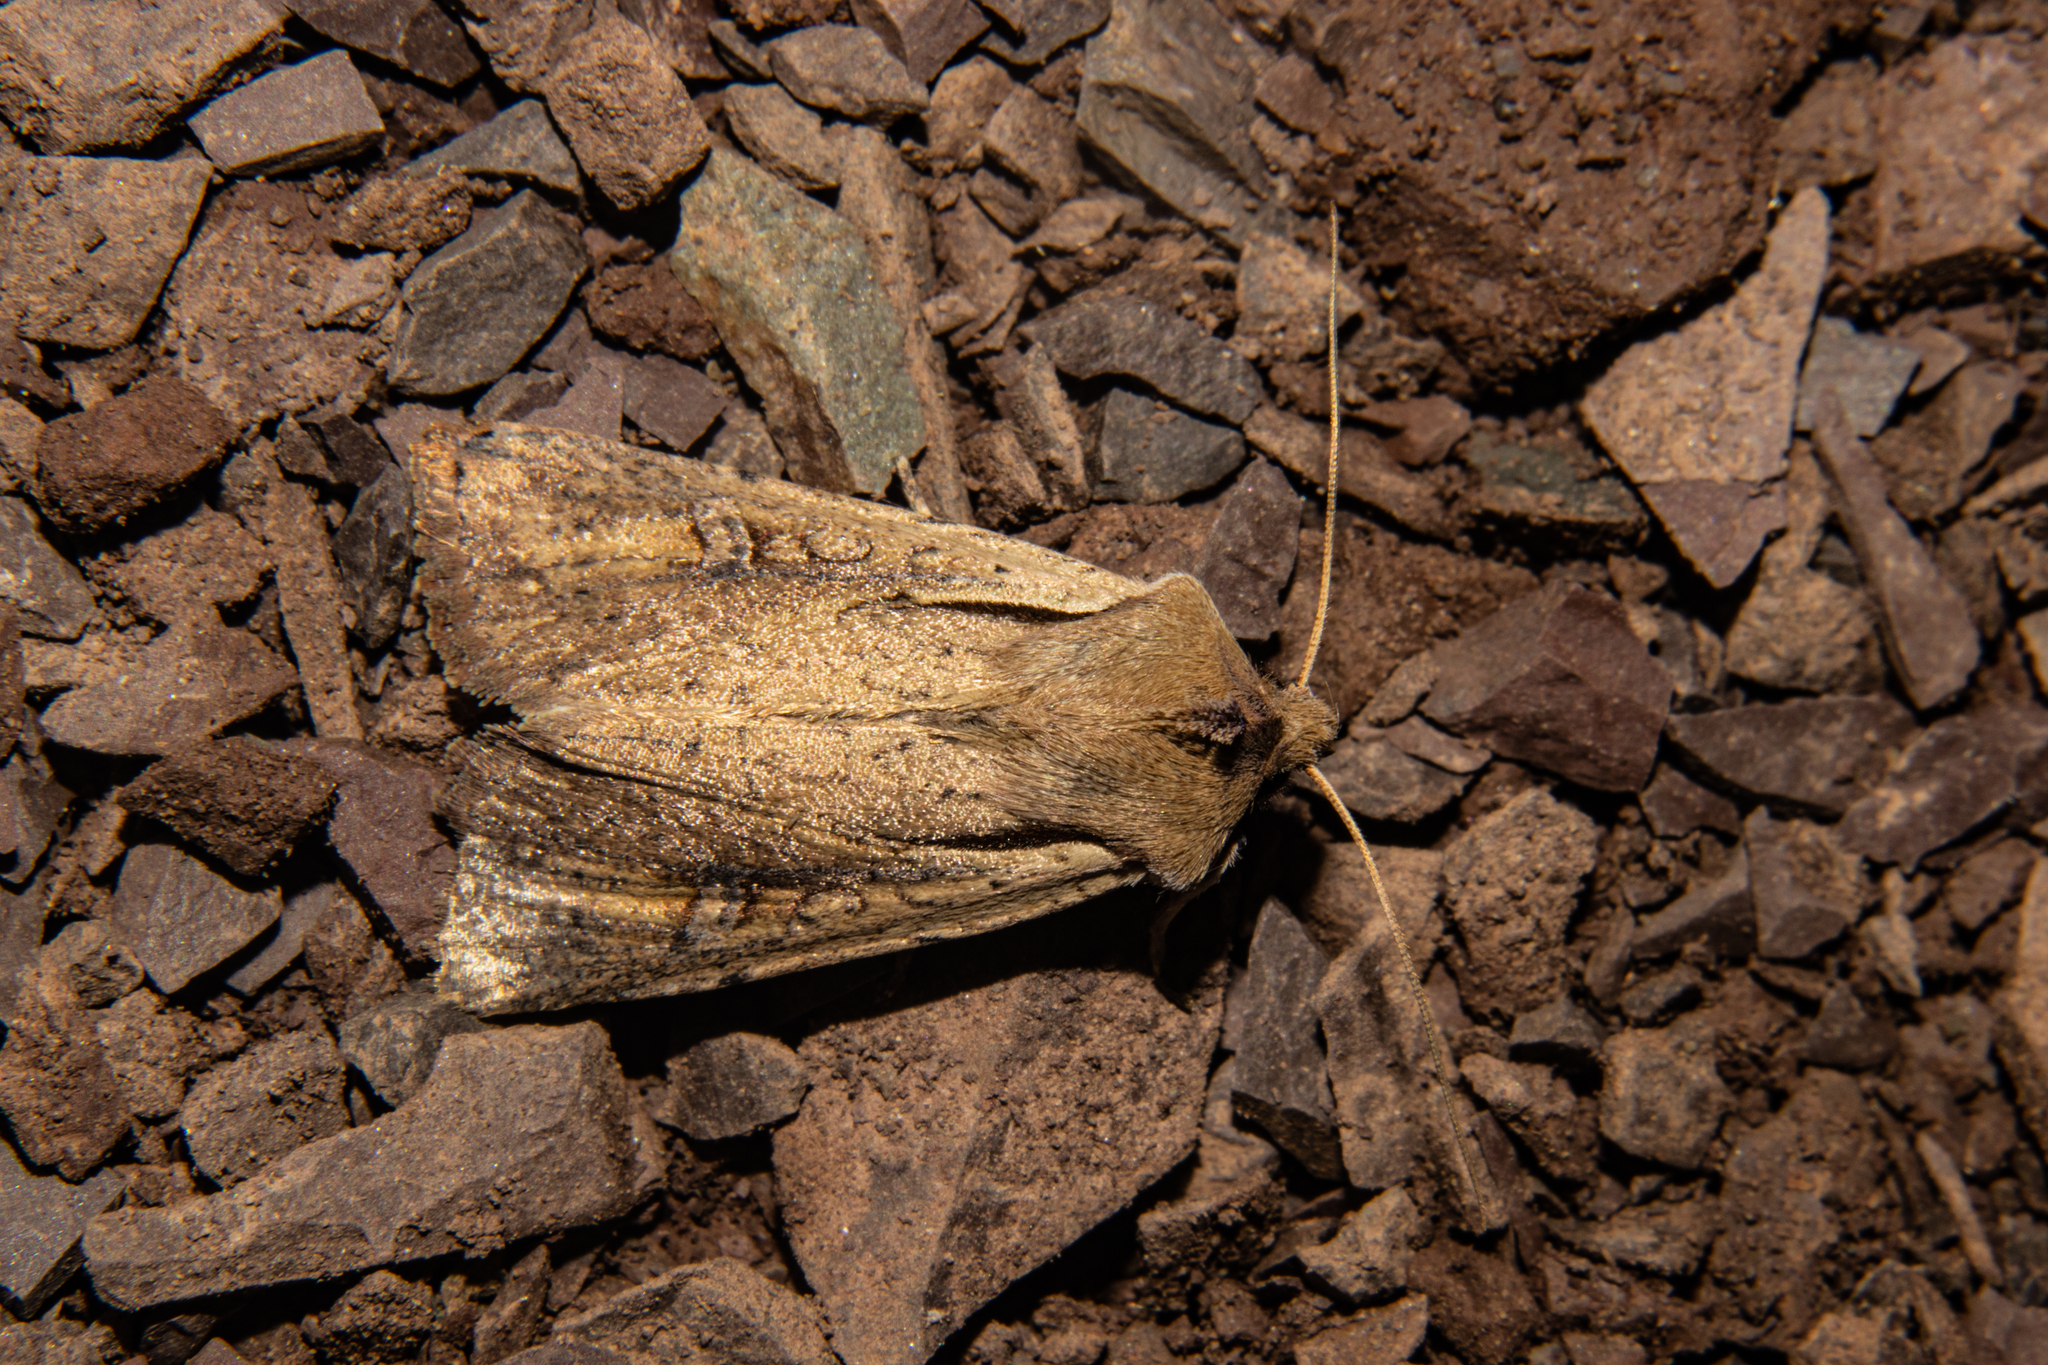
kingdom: Animalia
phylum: Arthropoda
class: Insecta
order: Lepidoptera
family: Noctuidae
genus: Ichneutica
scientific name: Ichneutica atristriga
